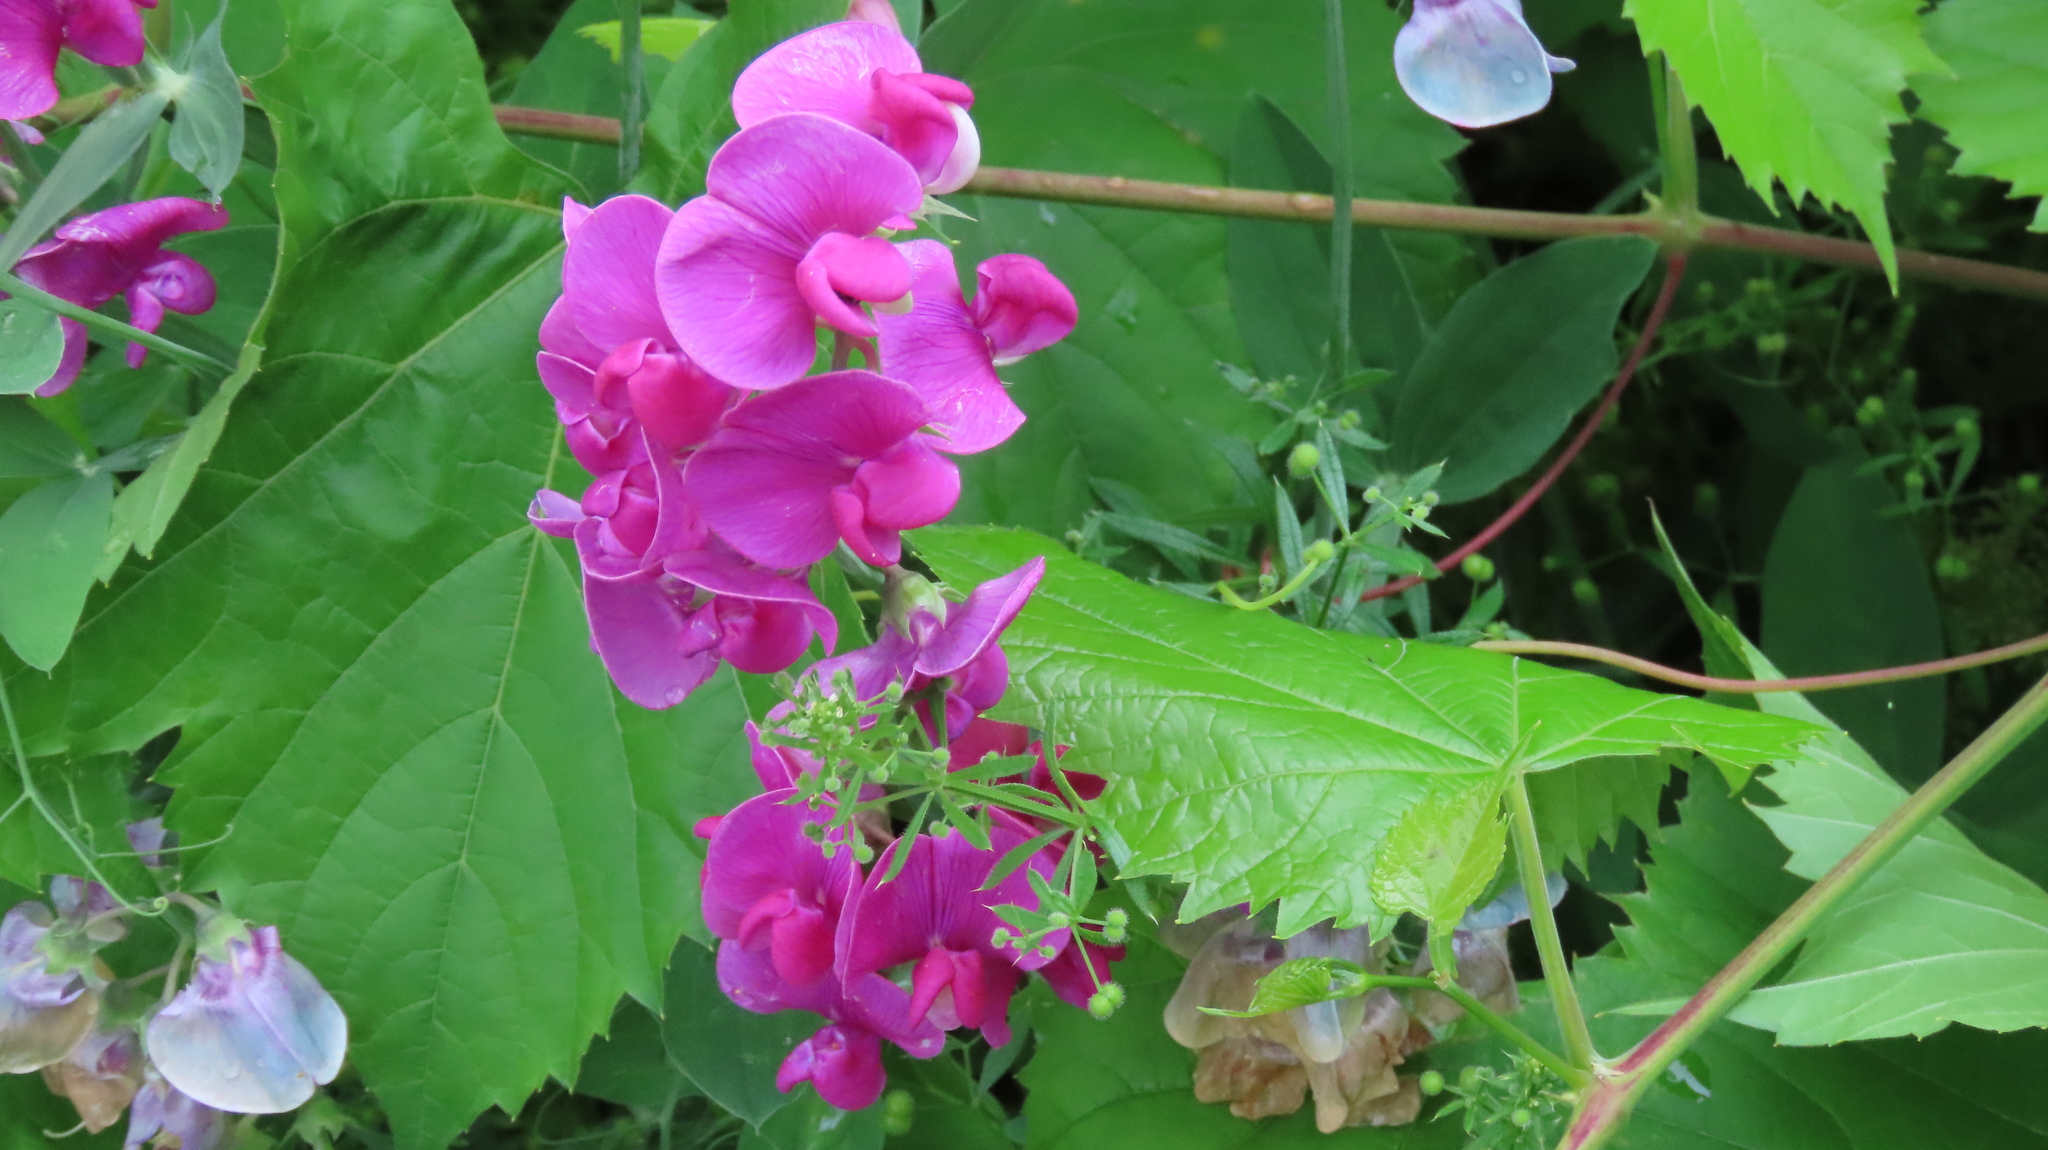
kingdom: Plantae
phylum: Tracheophyta
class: Magnoliopsida
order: Fabales
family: Fabaceae
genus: Lathyrus
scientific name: Lathyrus latifolius
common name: Perennial pea
